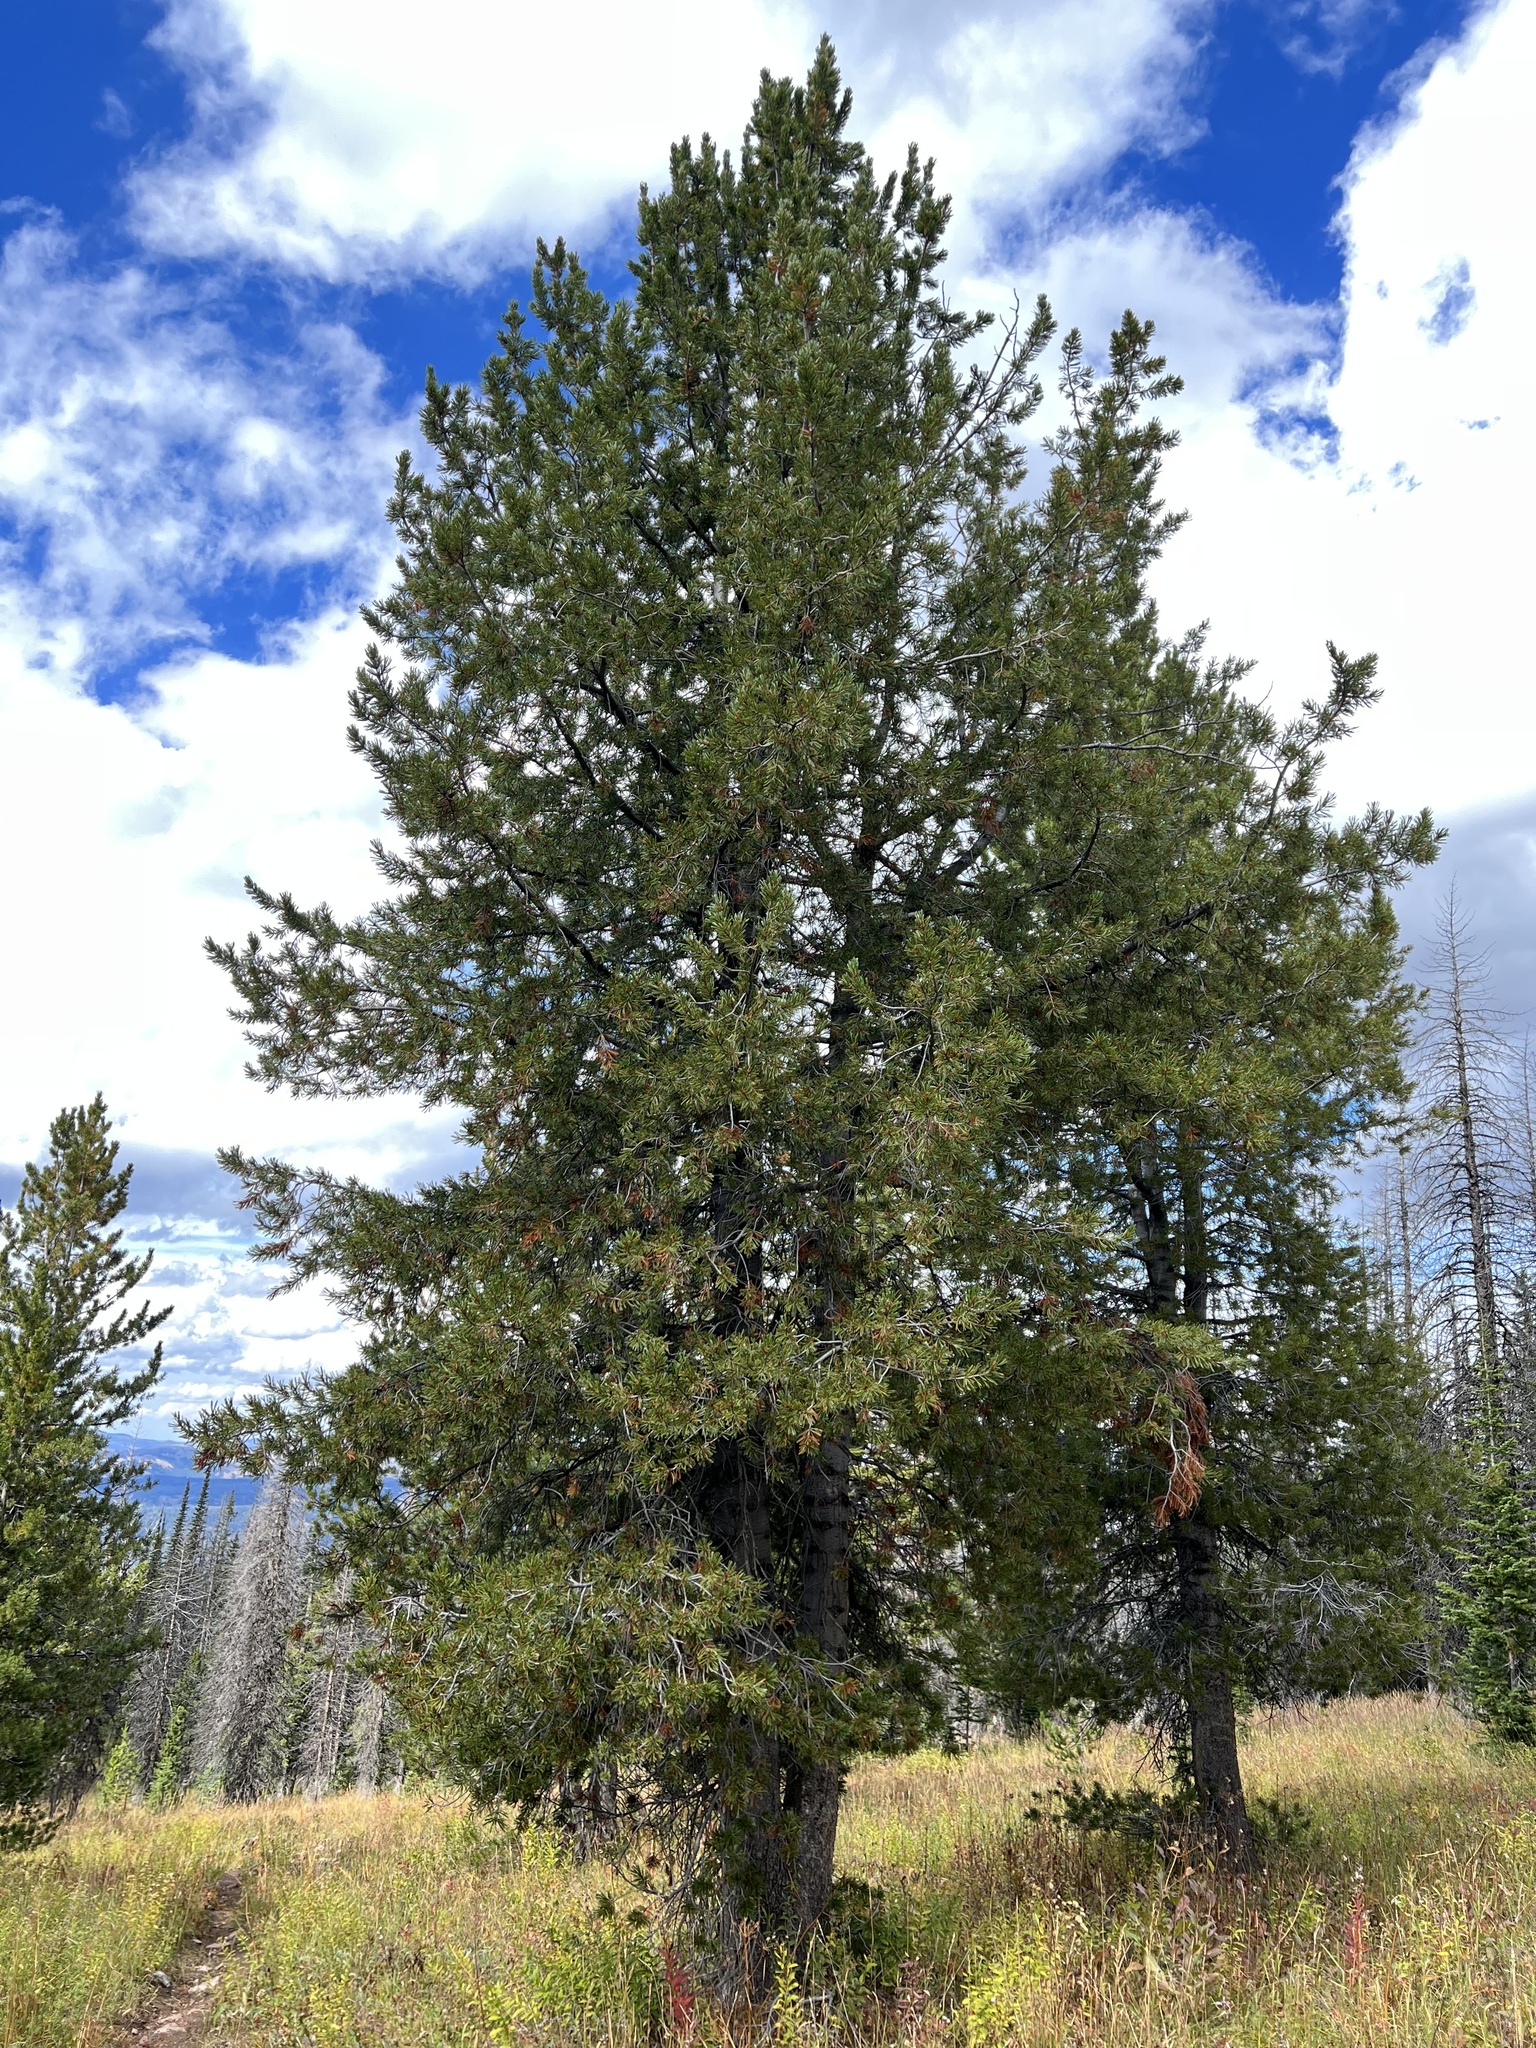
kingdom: Plantae
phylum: Tracheophyta
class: Pinopsida
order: Pinales
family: Pinaceae
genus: Pinus
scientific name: Pinus albicaulis
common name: Whitebark pine
